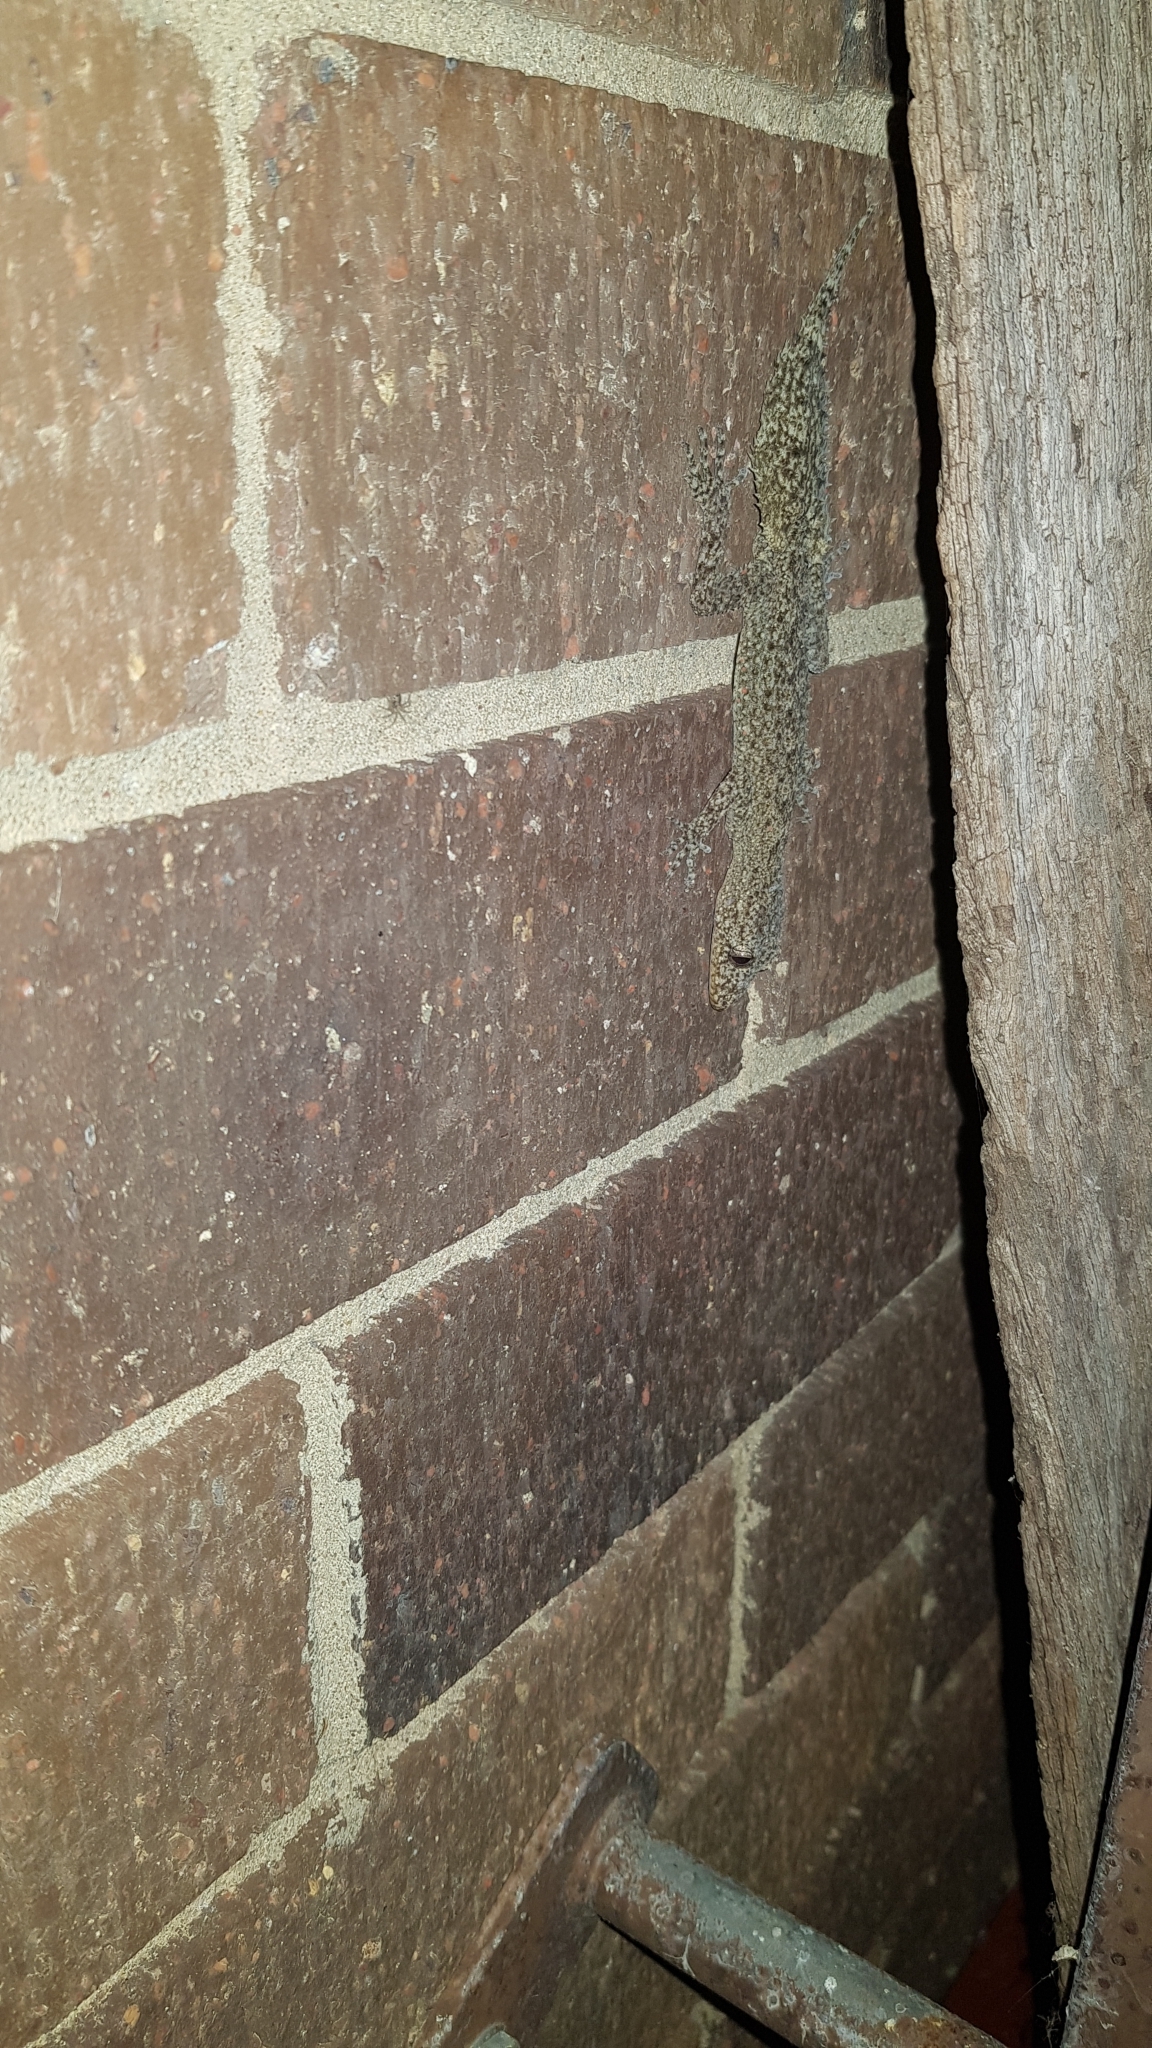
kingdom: Animalia
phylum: Chordata
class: Squamata
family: Carphodactylidae
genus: Phyllurus
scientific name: Phyllurus platurus
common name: Broad-tailed gecko
